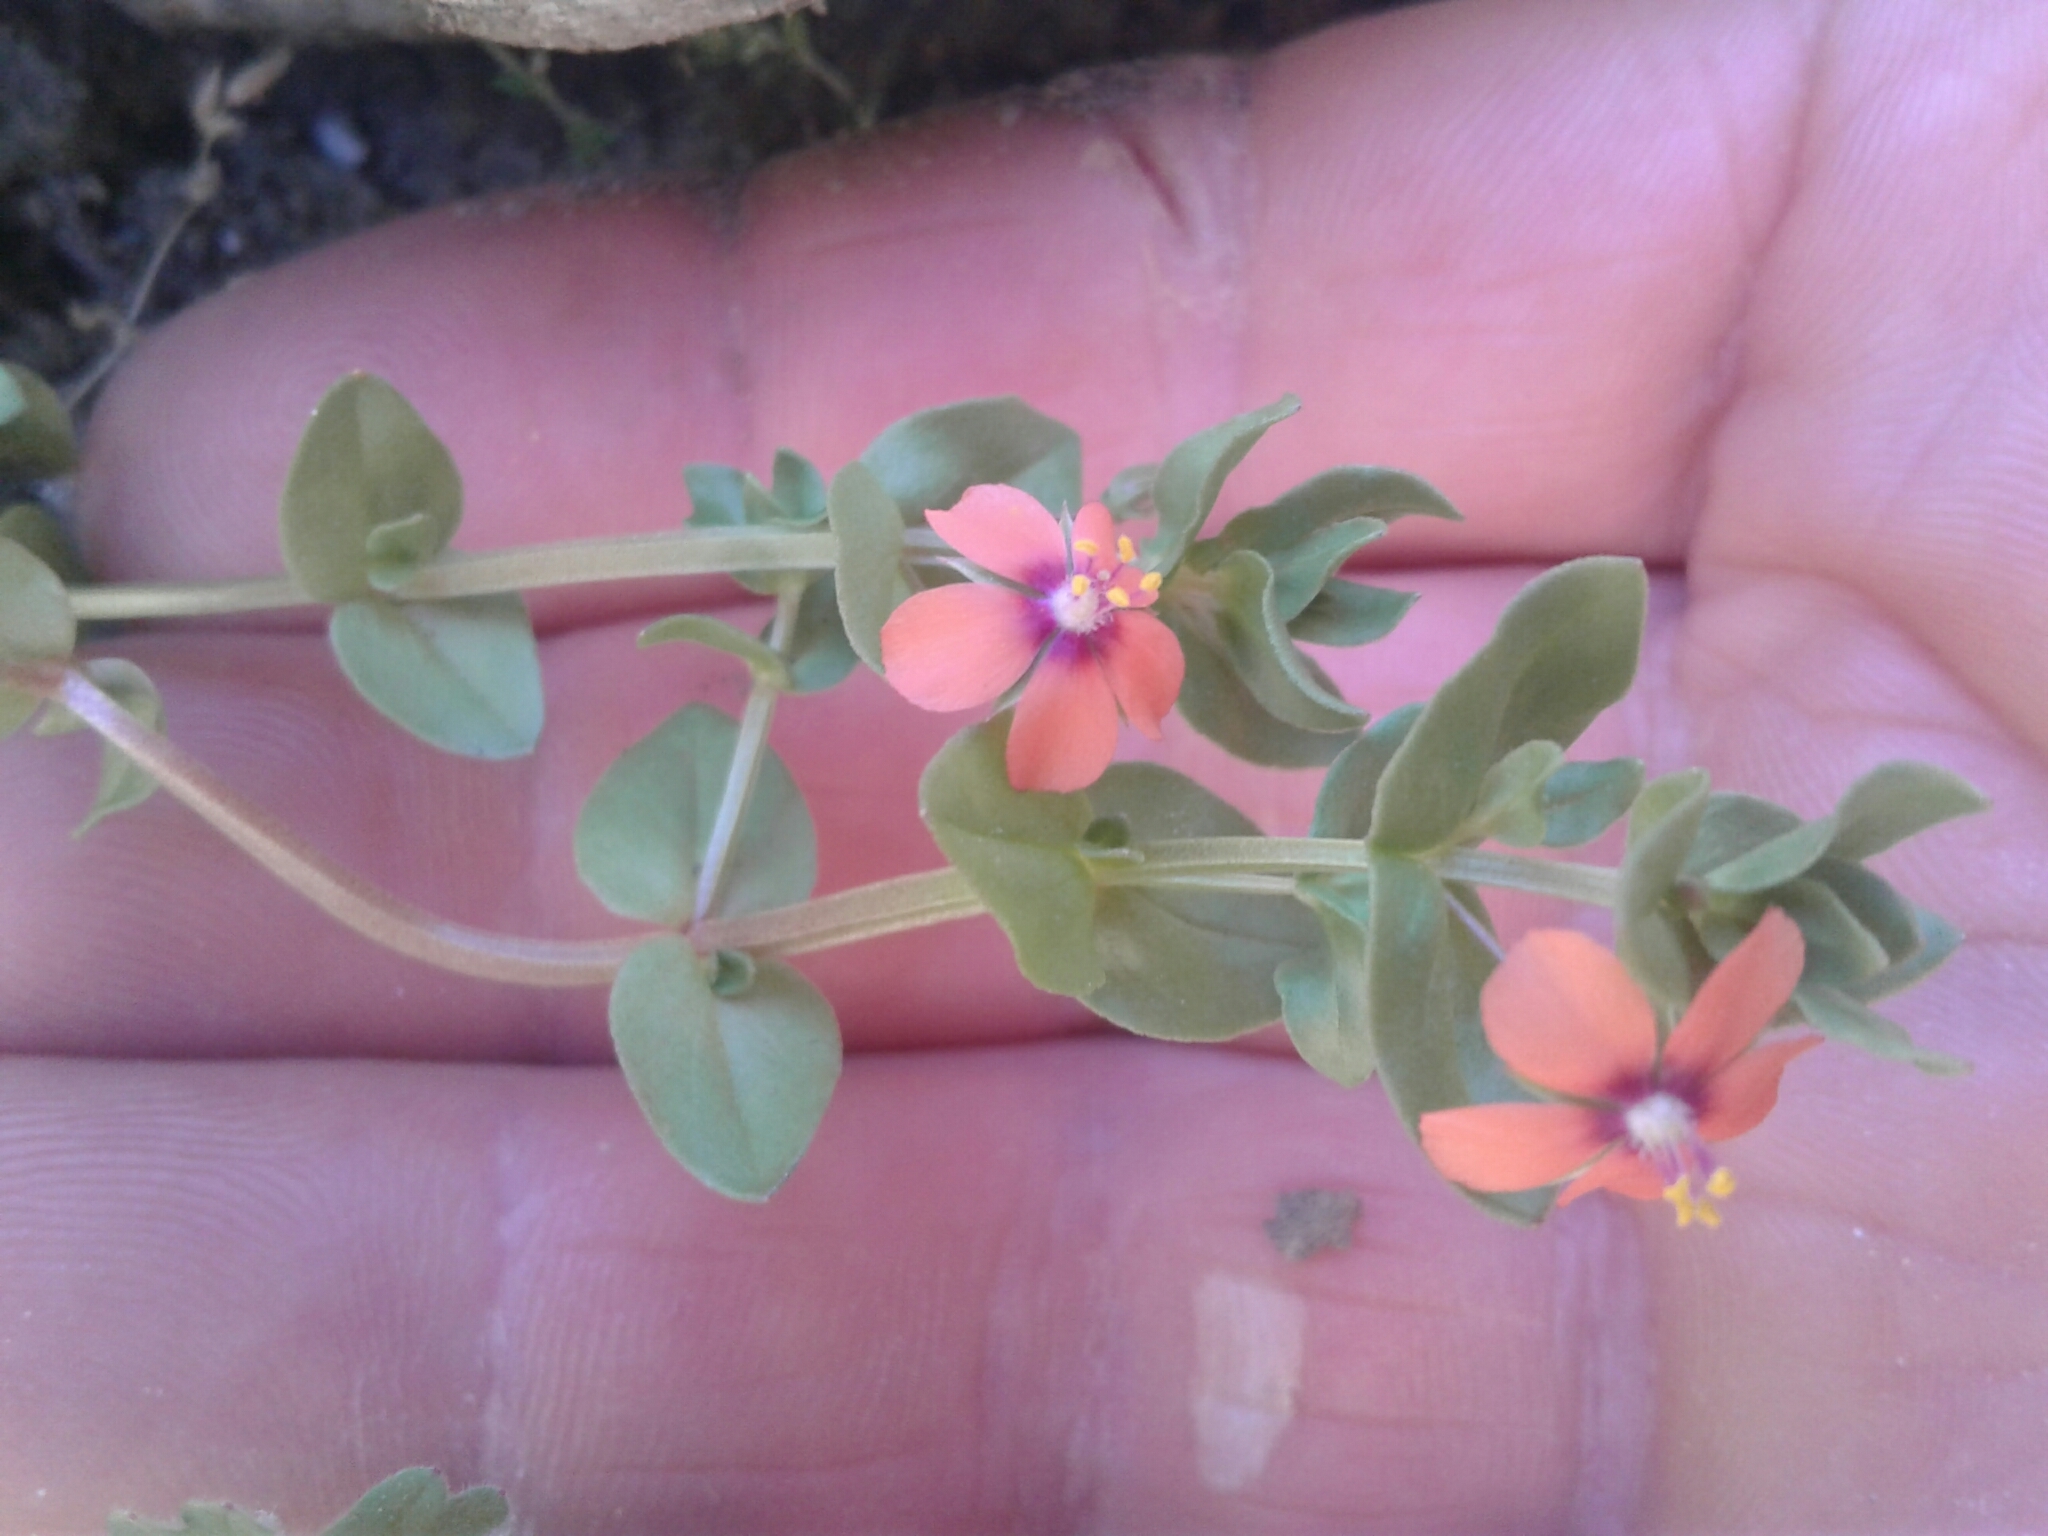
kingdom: Plantae
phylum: Tracheophyta
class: Magnoliopsida
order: Ericales
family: Primulaceae
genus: Lysimachia
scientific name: Lysimachia arvensis
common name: Scarlet pimpernel
